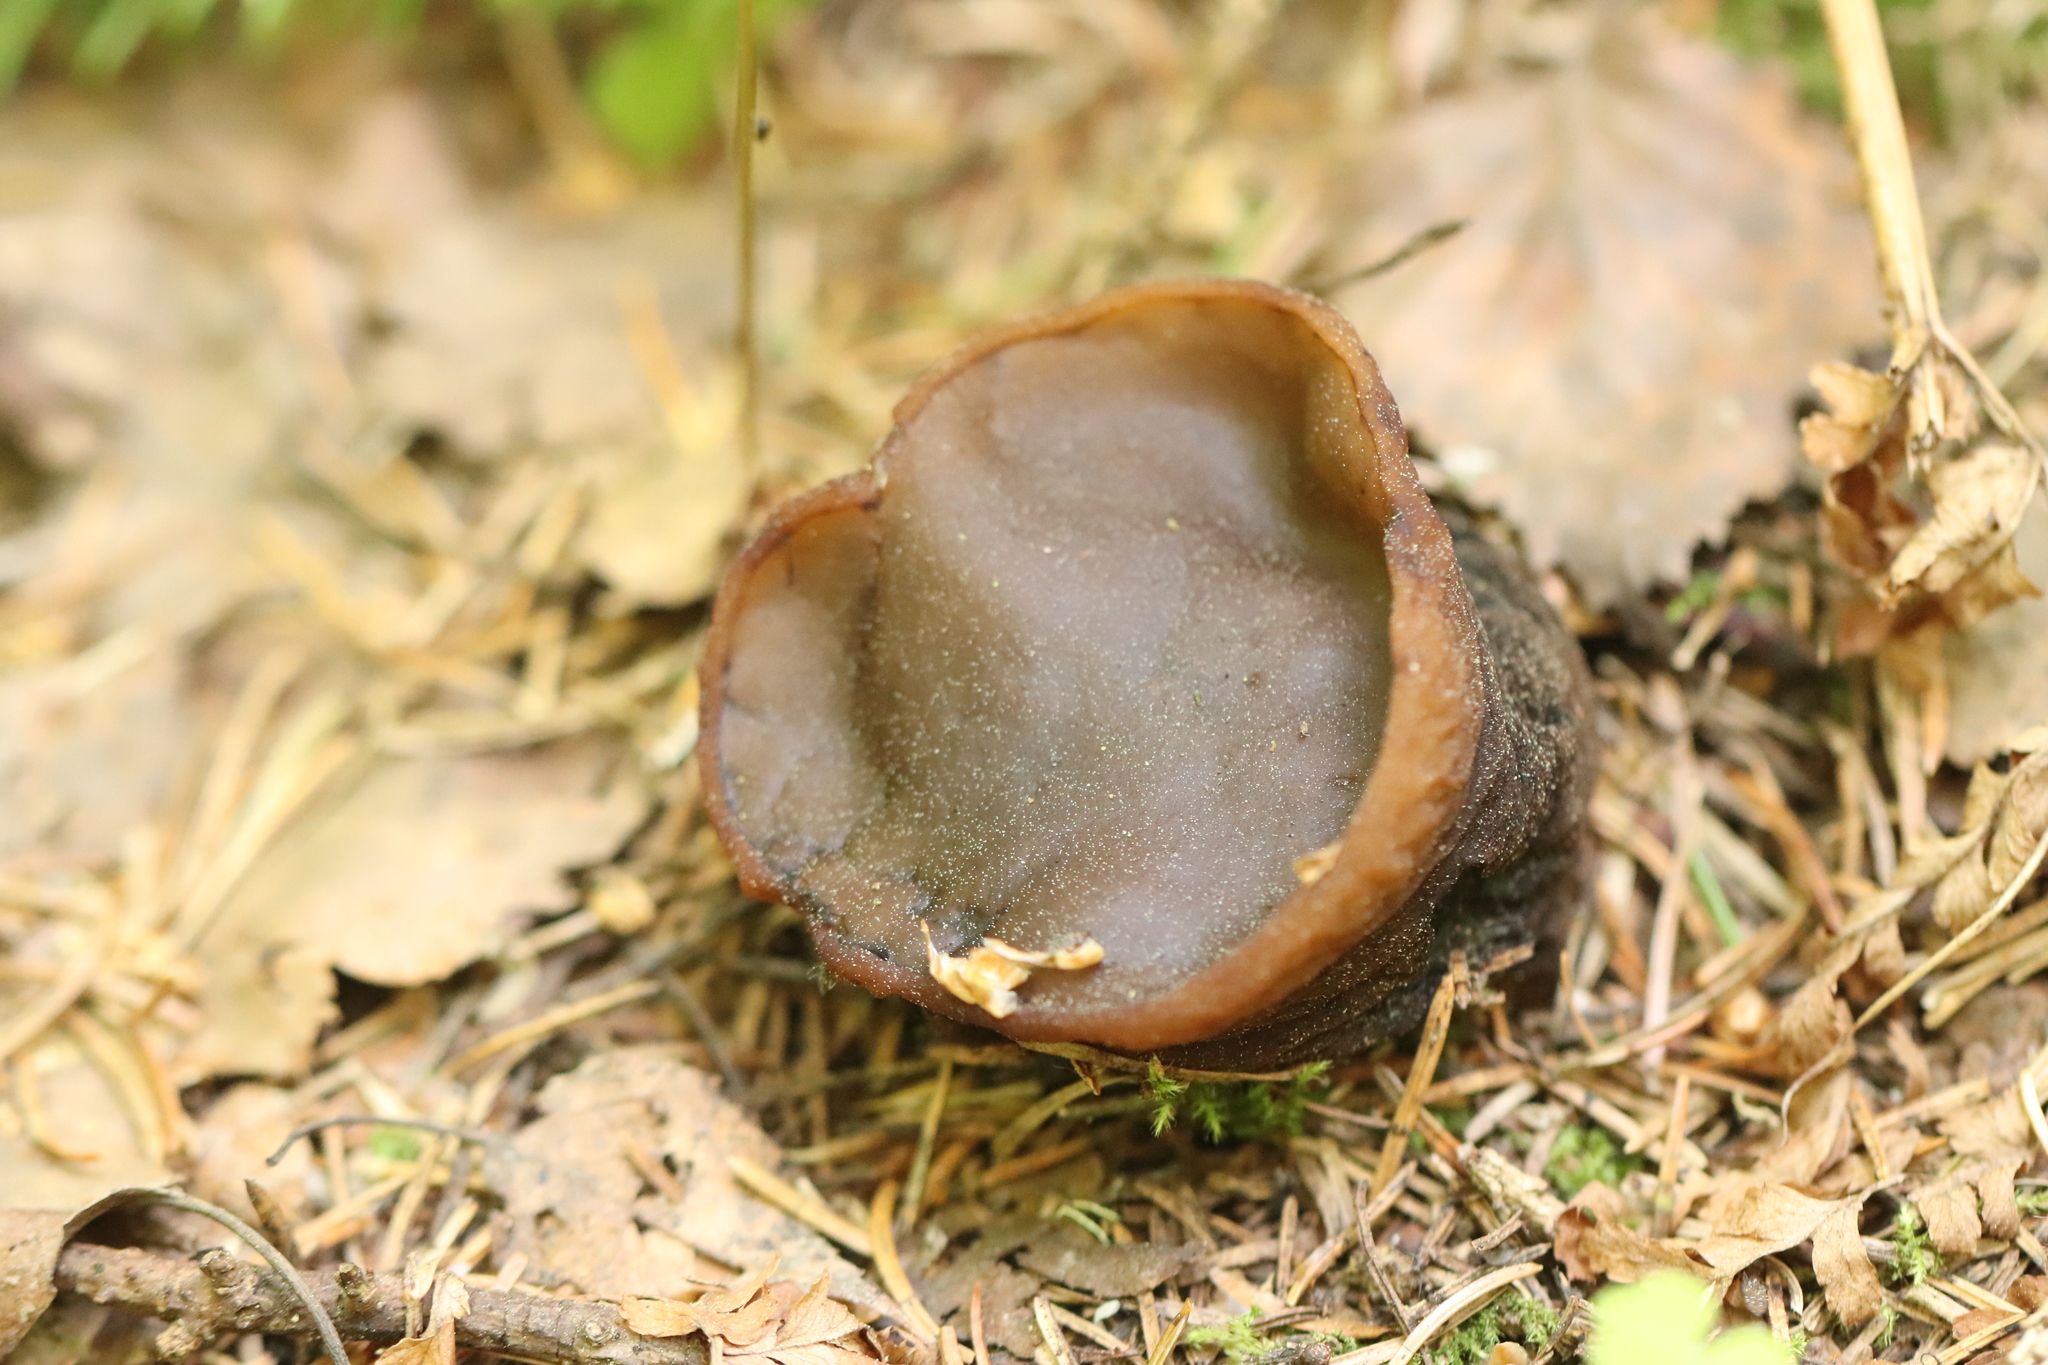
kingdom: Fungi
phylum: Ascomycota
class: Pezizomycetes
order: Pezizales
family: Sarcosomataceae
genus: Sarcosoma
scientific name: Sarcosoma globosum
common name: Charred-pancake cup
